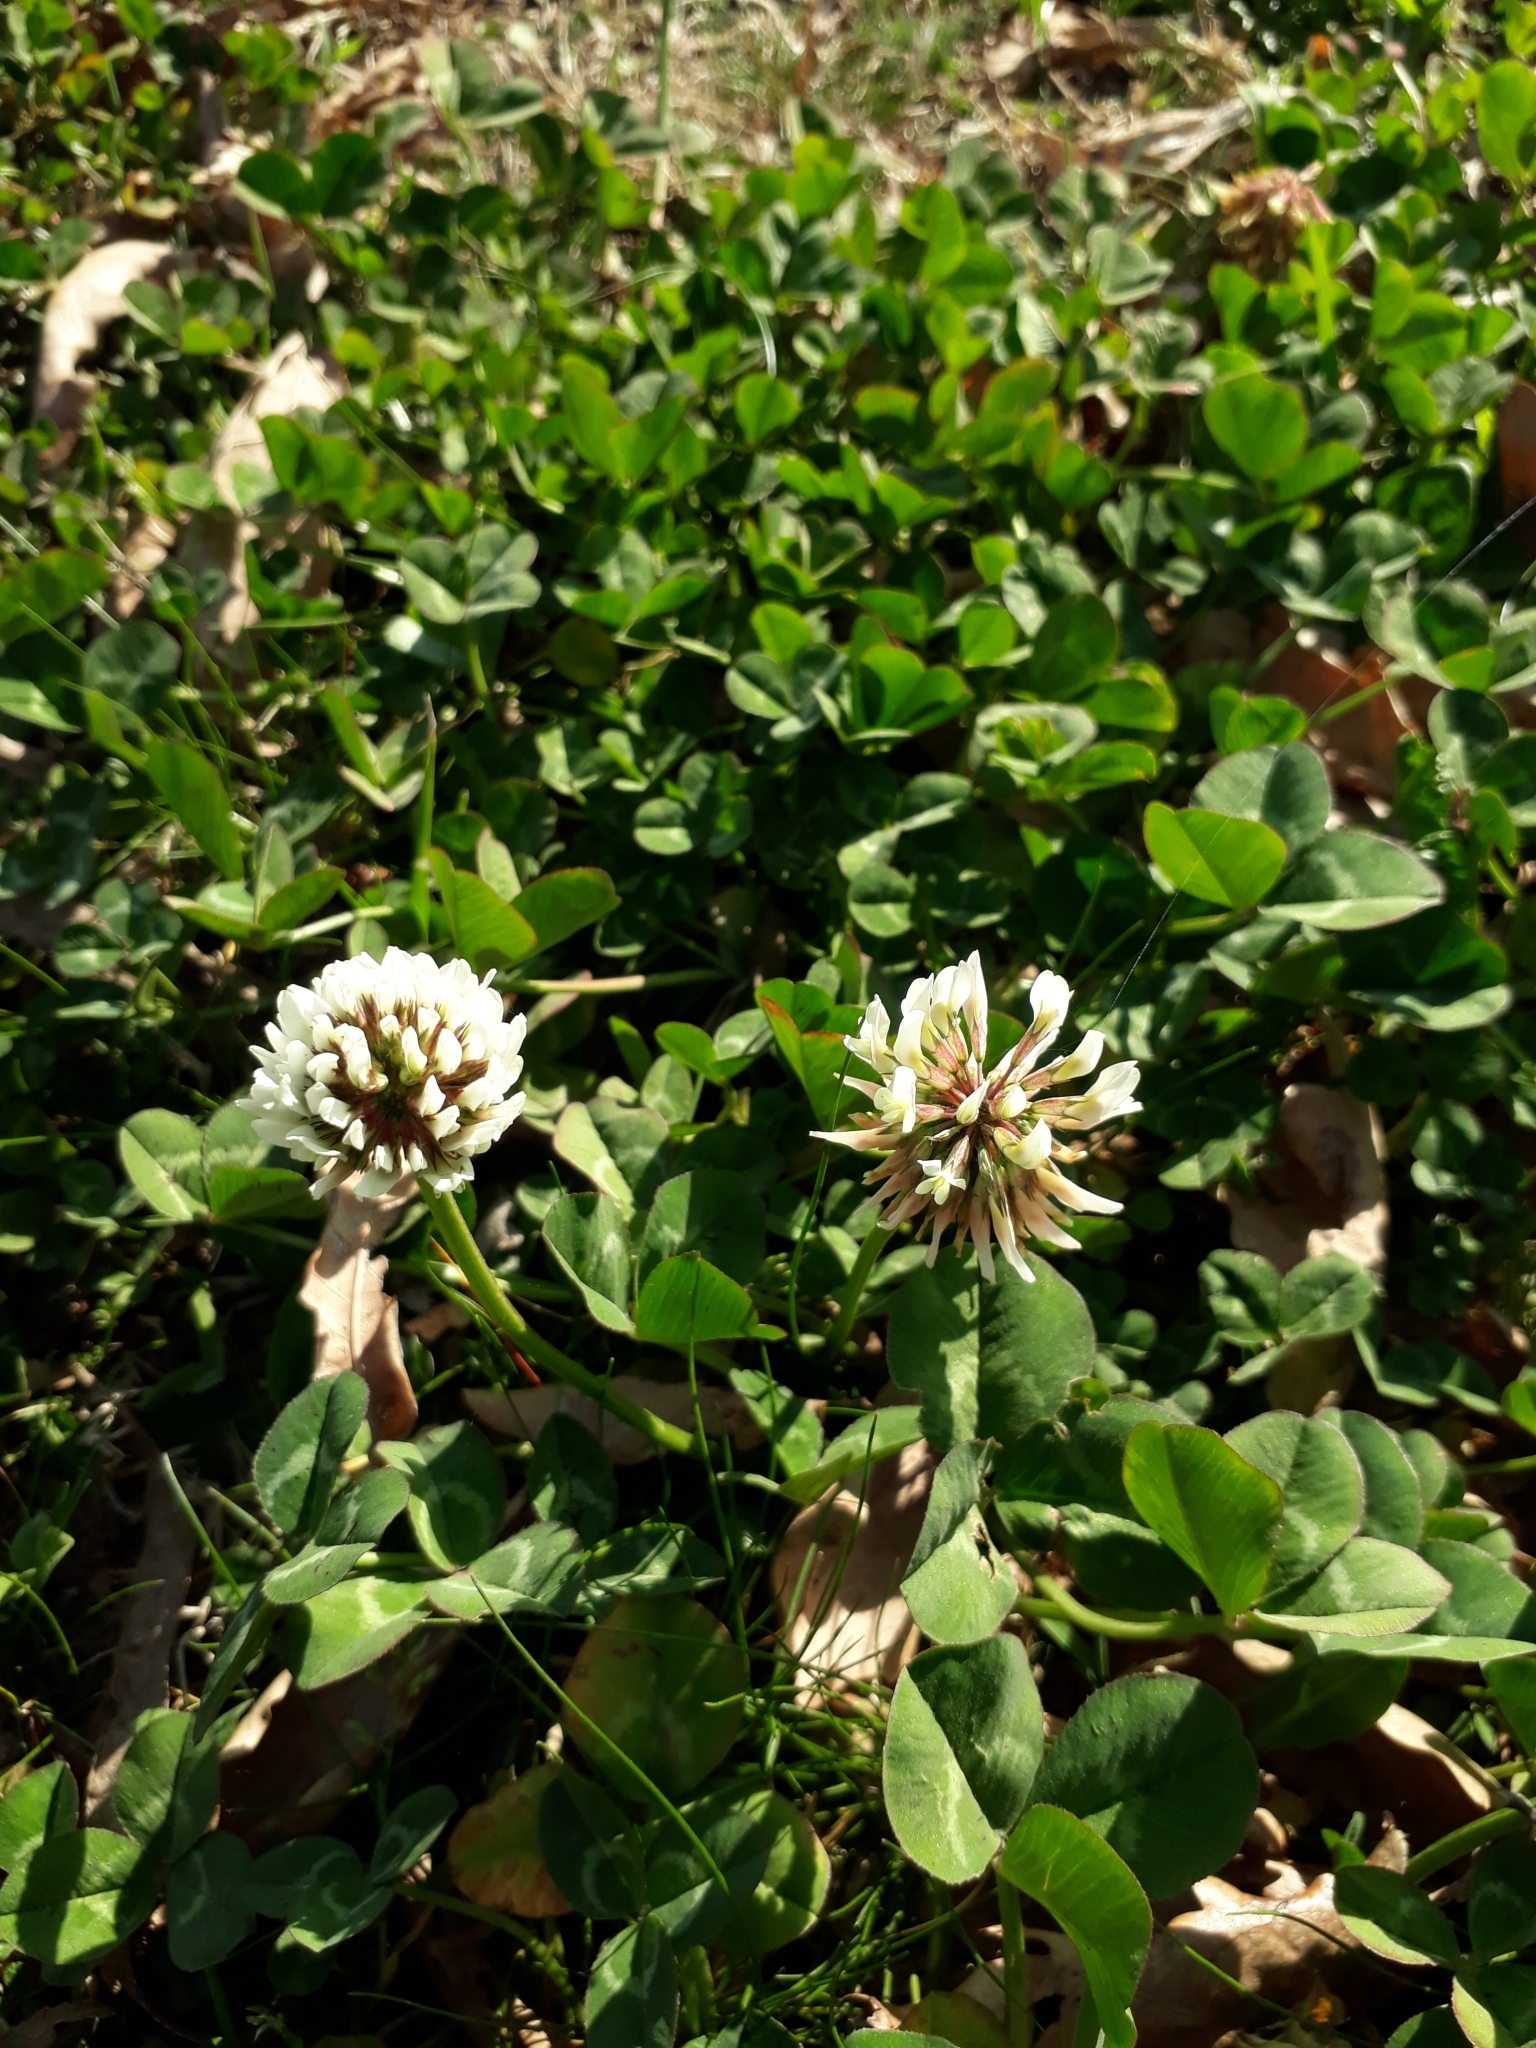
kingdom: Plantae
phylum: Tracheophyta
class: Magnoliopsida
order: Fabales
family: Fabaceae
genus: Trifolium
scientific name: Trifolium repens
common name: White clover
